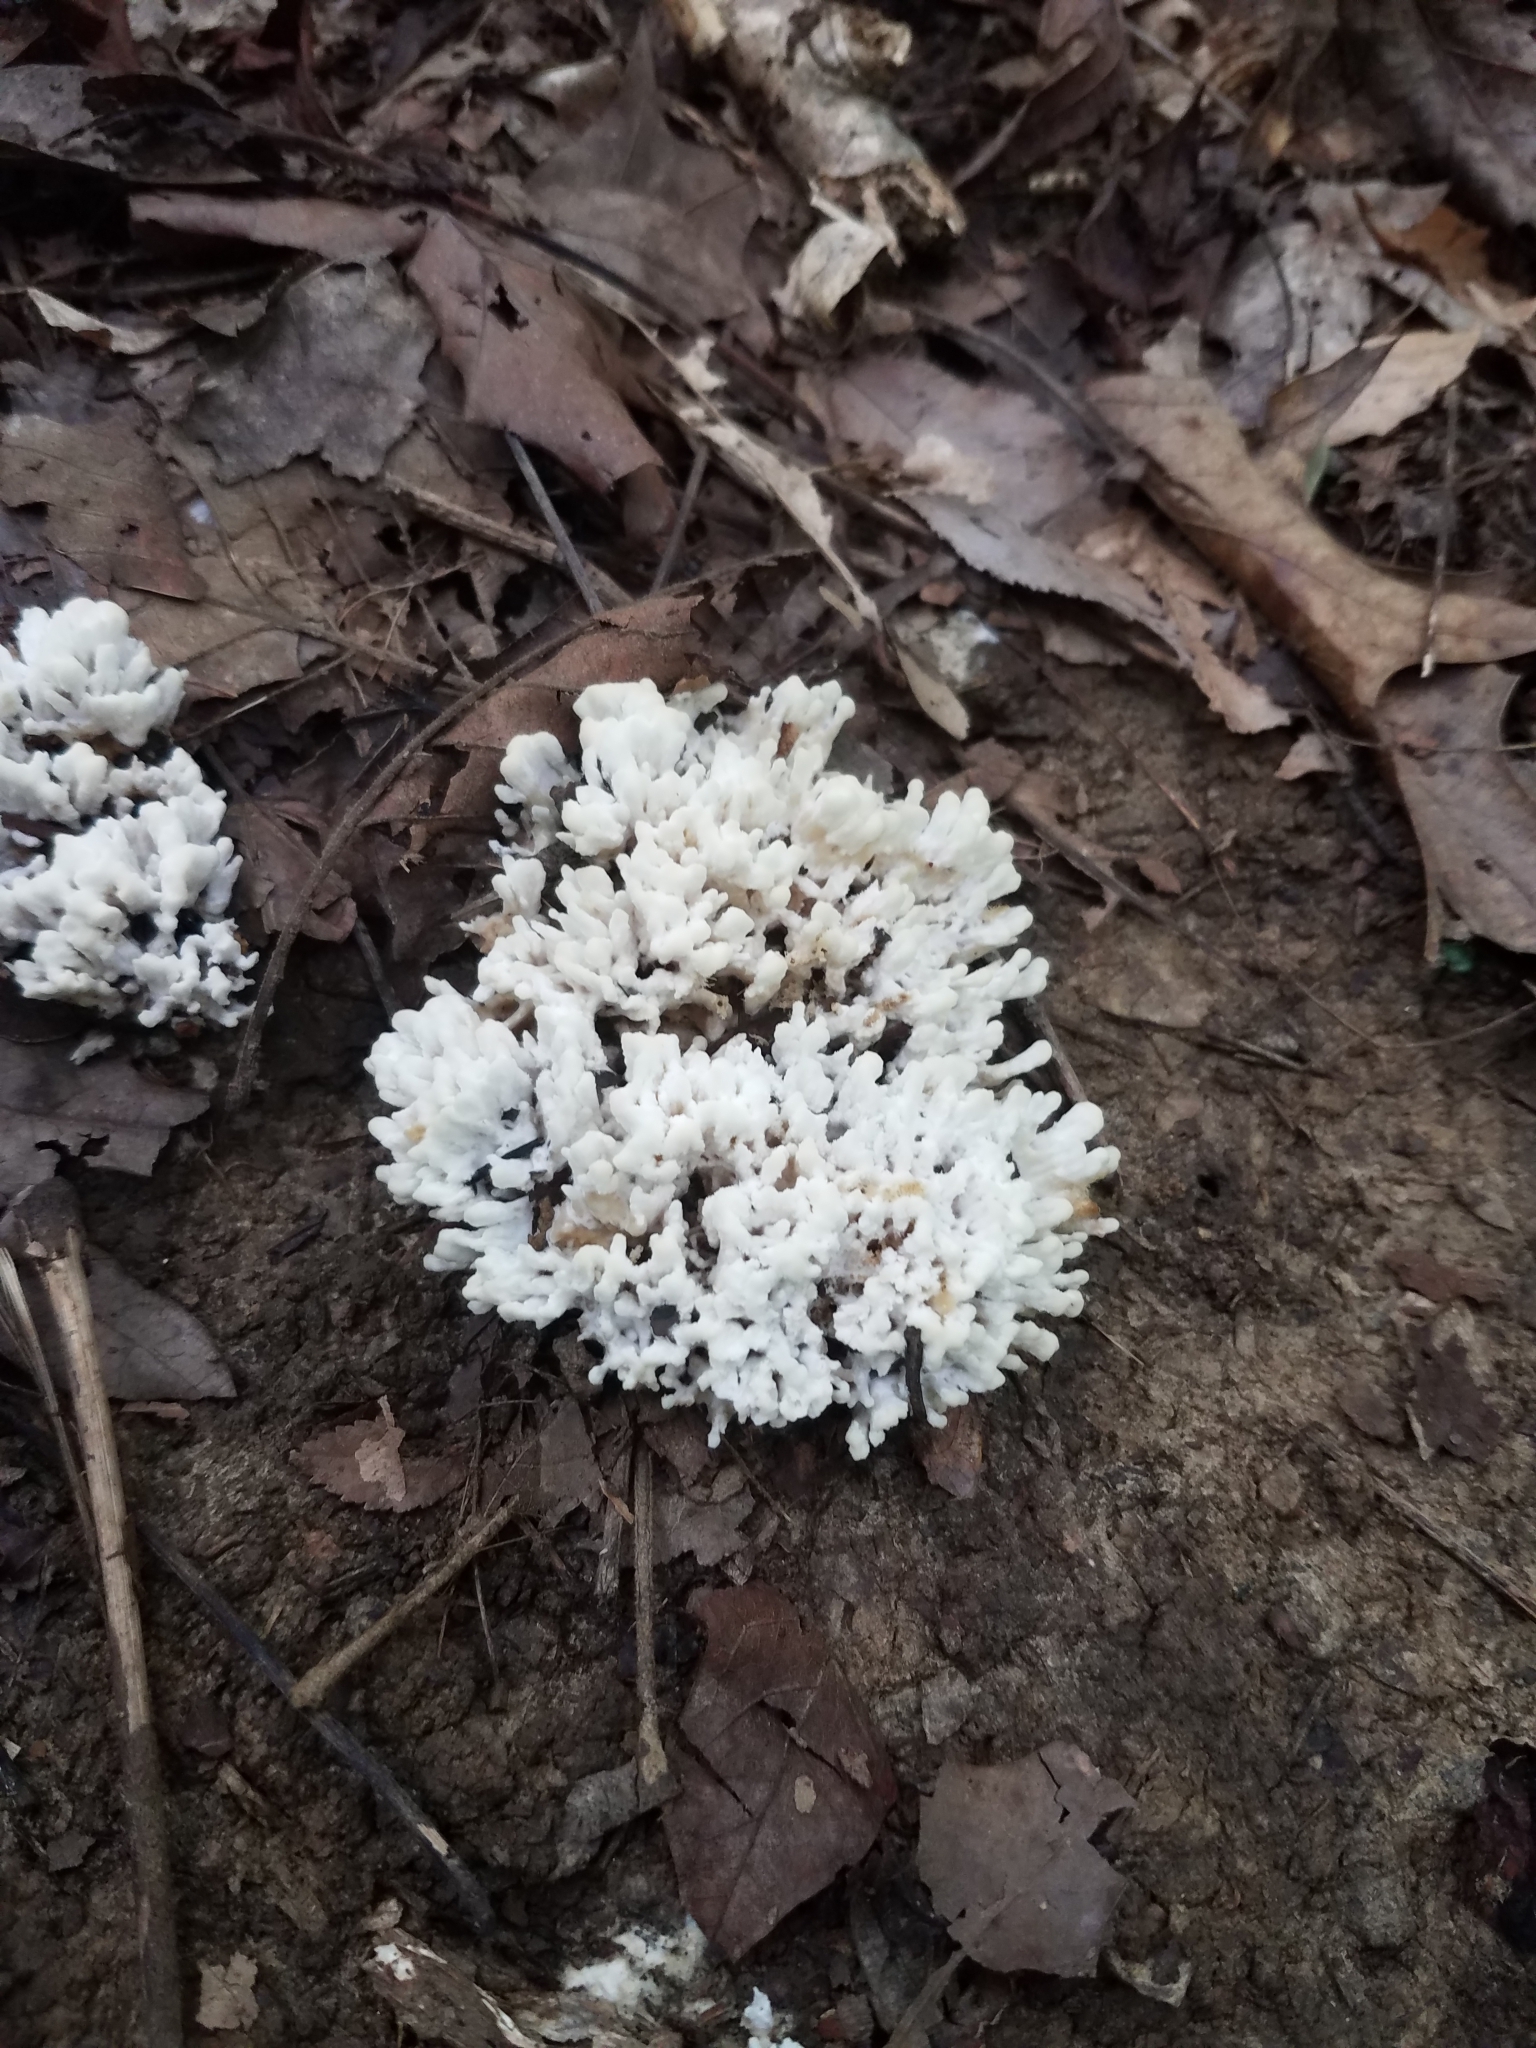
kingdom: Fungi
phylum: Basidiomycota
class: Agaricomycetes
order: Sebacinales
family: Sebacinaceae
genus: Sebacina
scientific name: Sebacina schweinitzii
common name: Jellied false coral fungus
